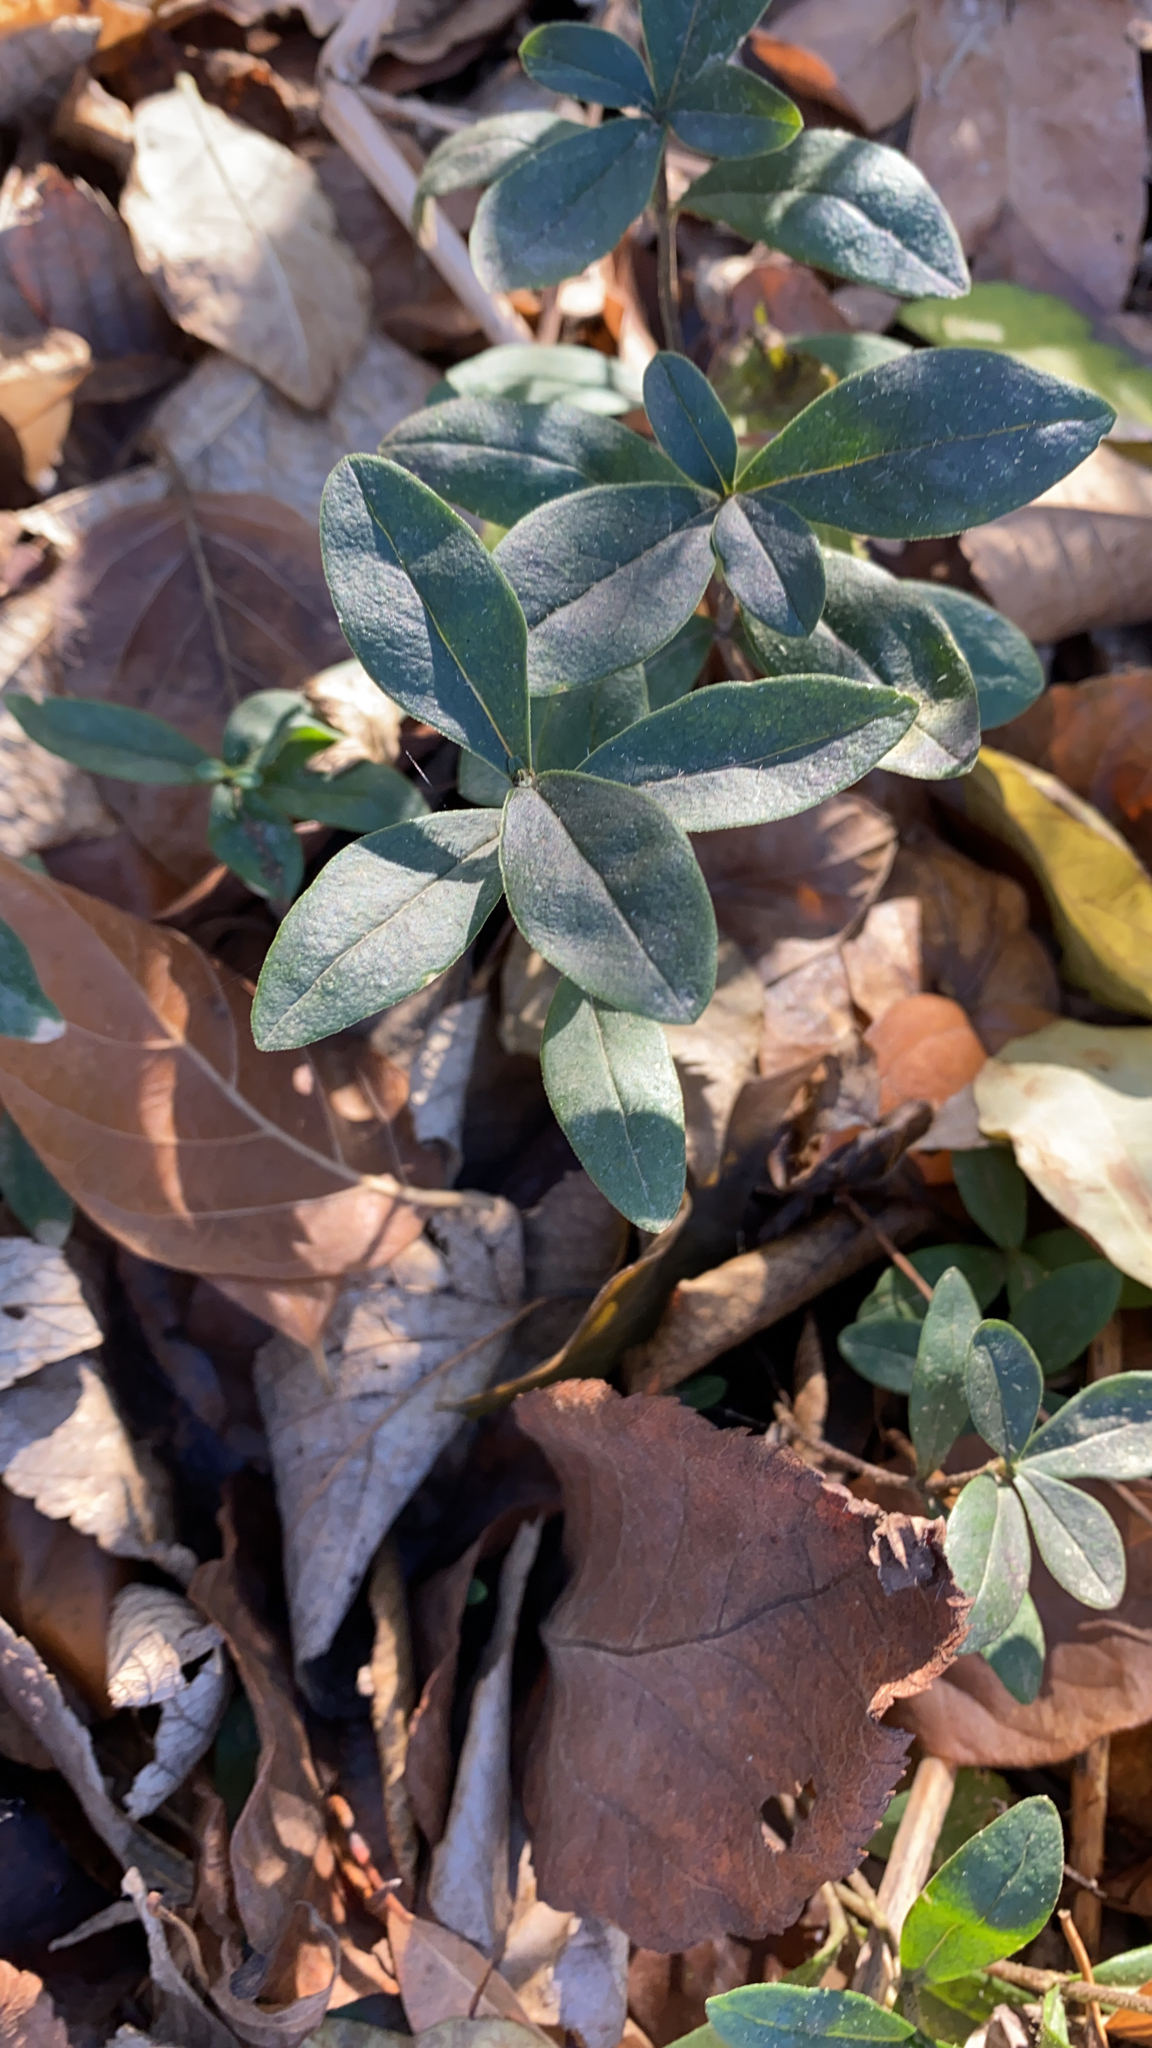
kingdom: Plantae
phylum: Tracheophyta
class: Magnoliopsida
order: Gentianales
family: Apocynaceae
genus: Vinca
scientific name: Vinca minor
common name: Lesser periwinkle
